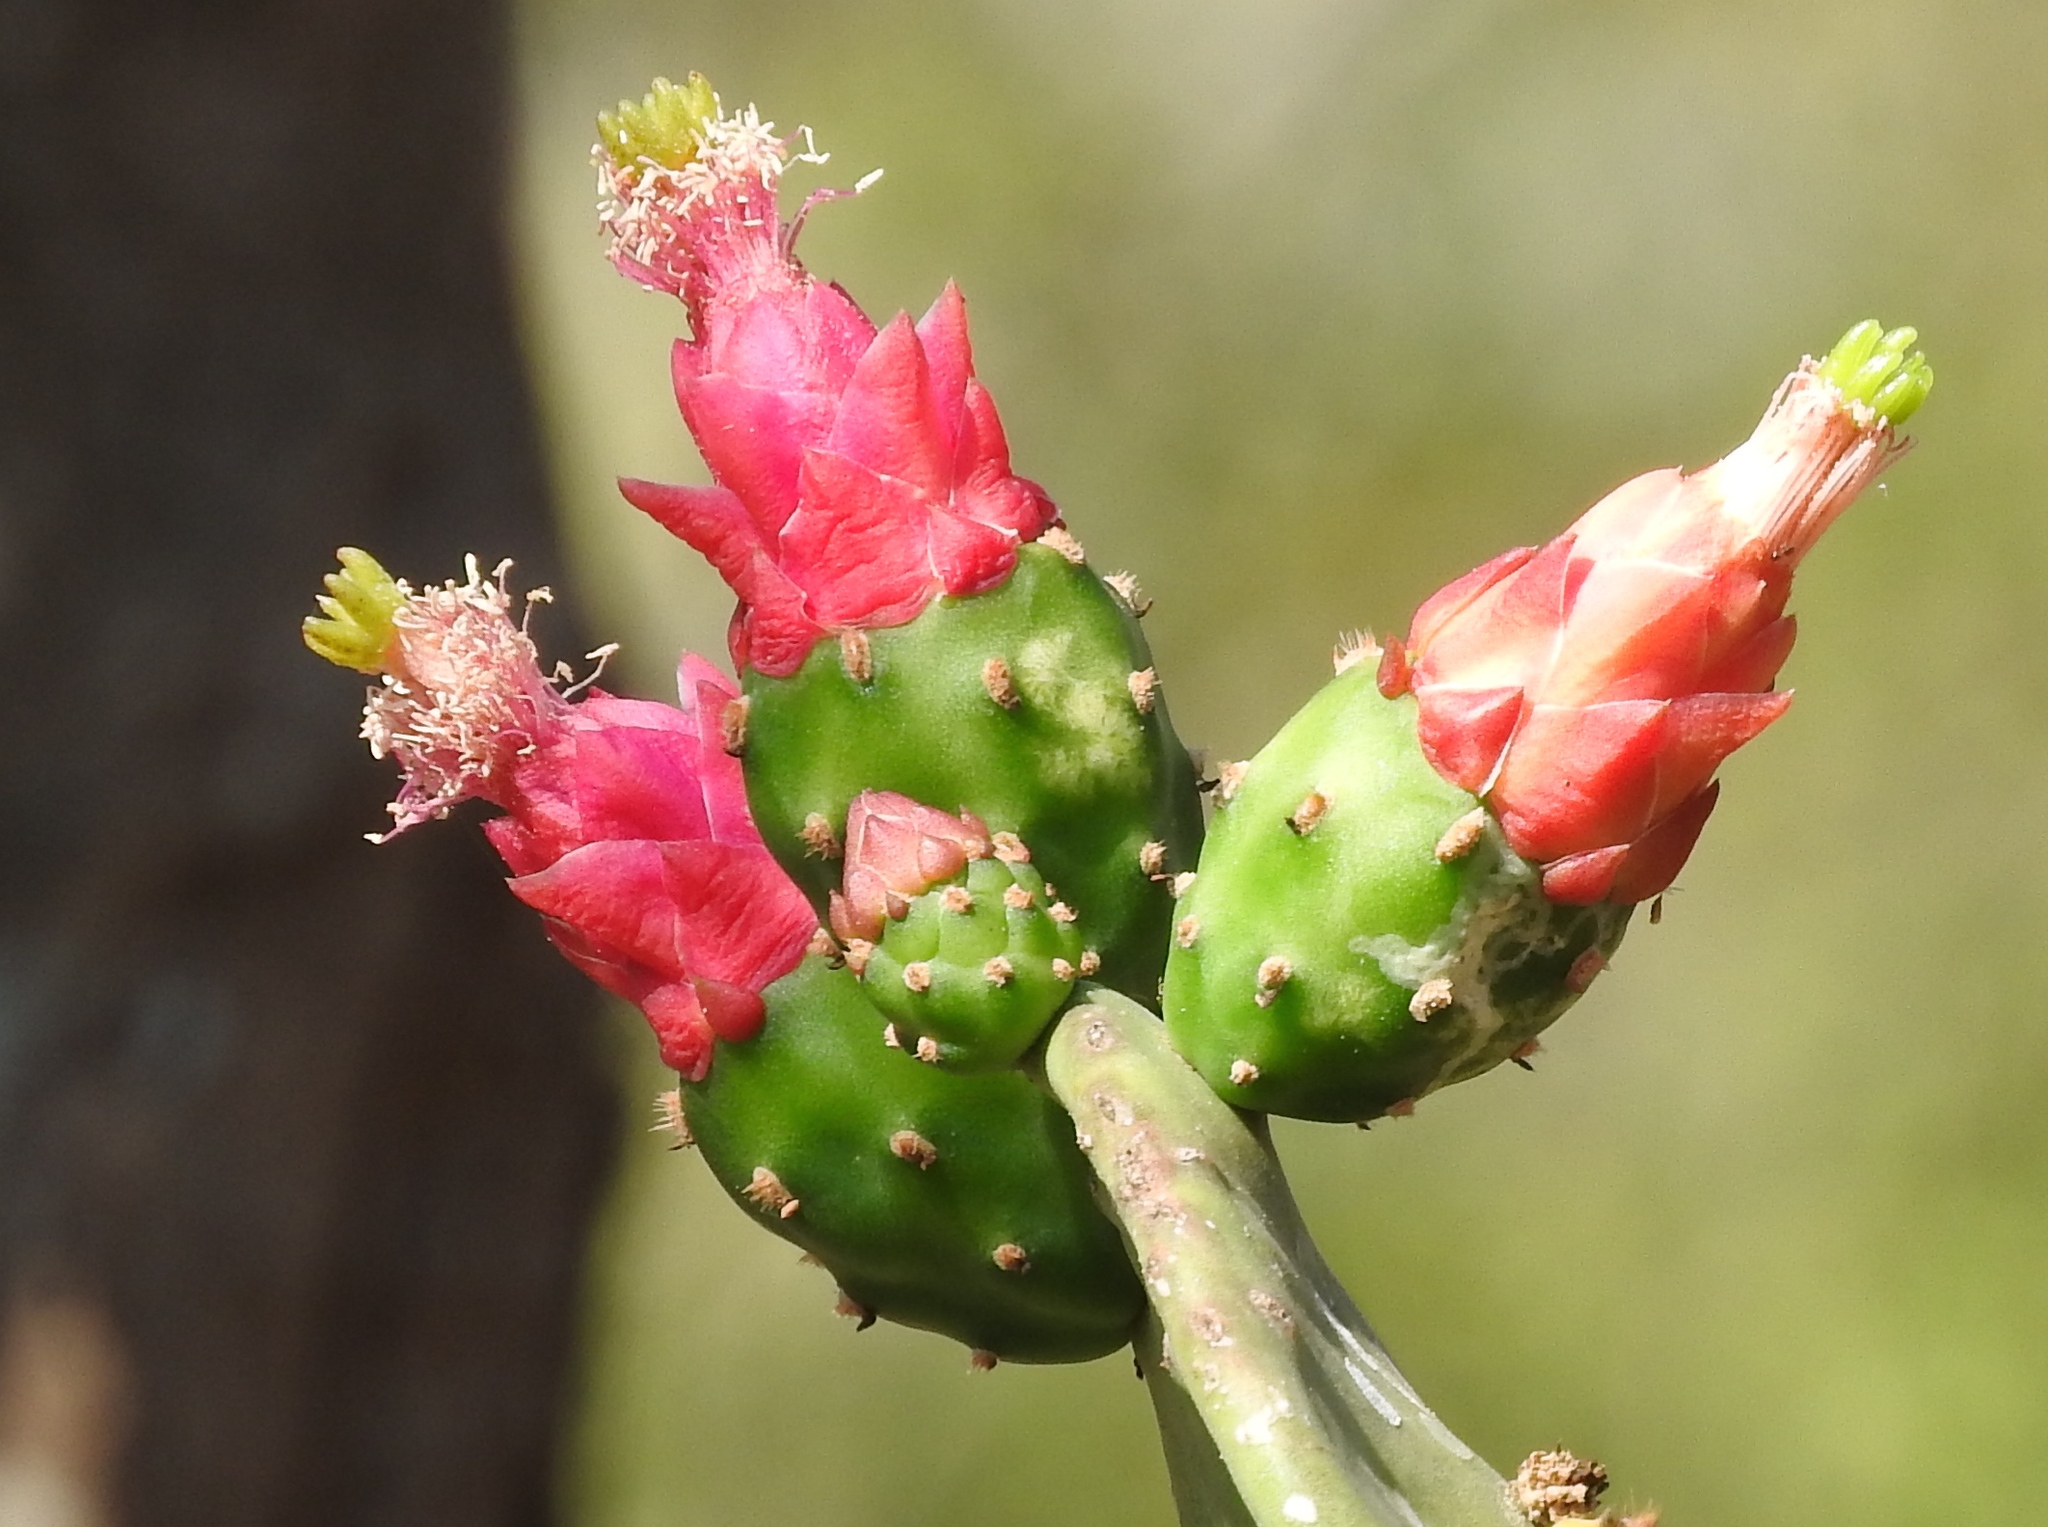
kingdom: Plantae
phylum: Tracheophyta
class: Magnoliopsida
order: Caryophyllales
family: Cactaceae
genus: Opuntia
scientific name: Opuntia cochenillifera
